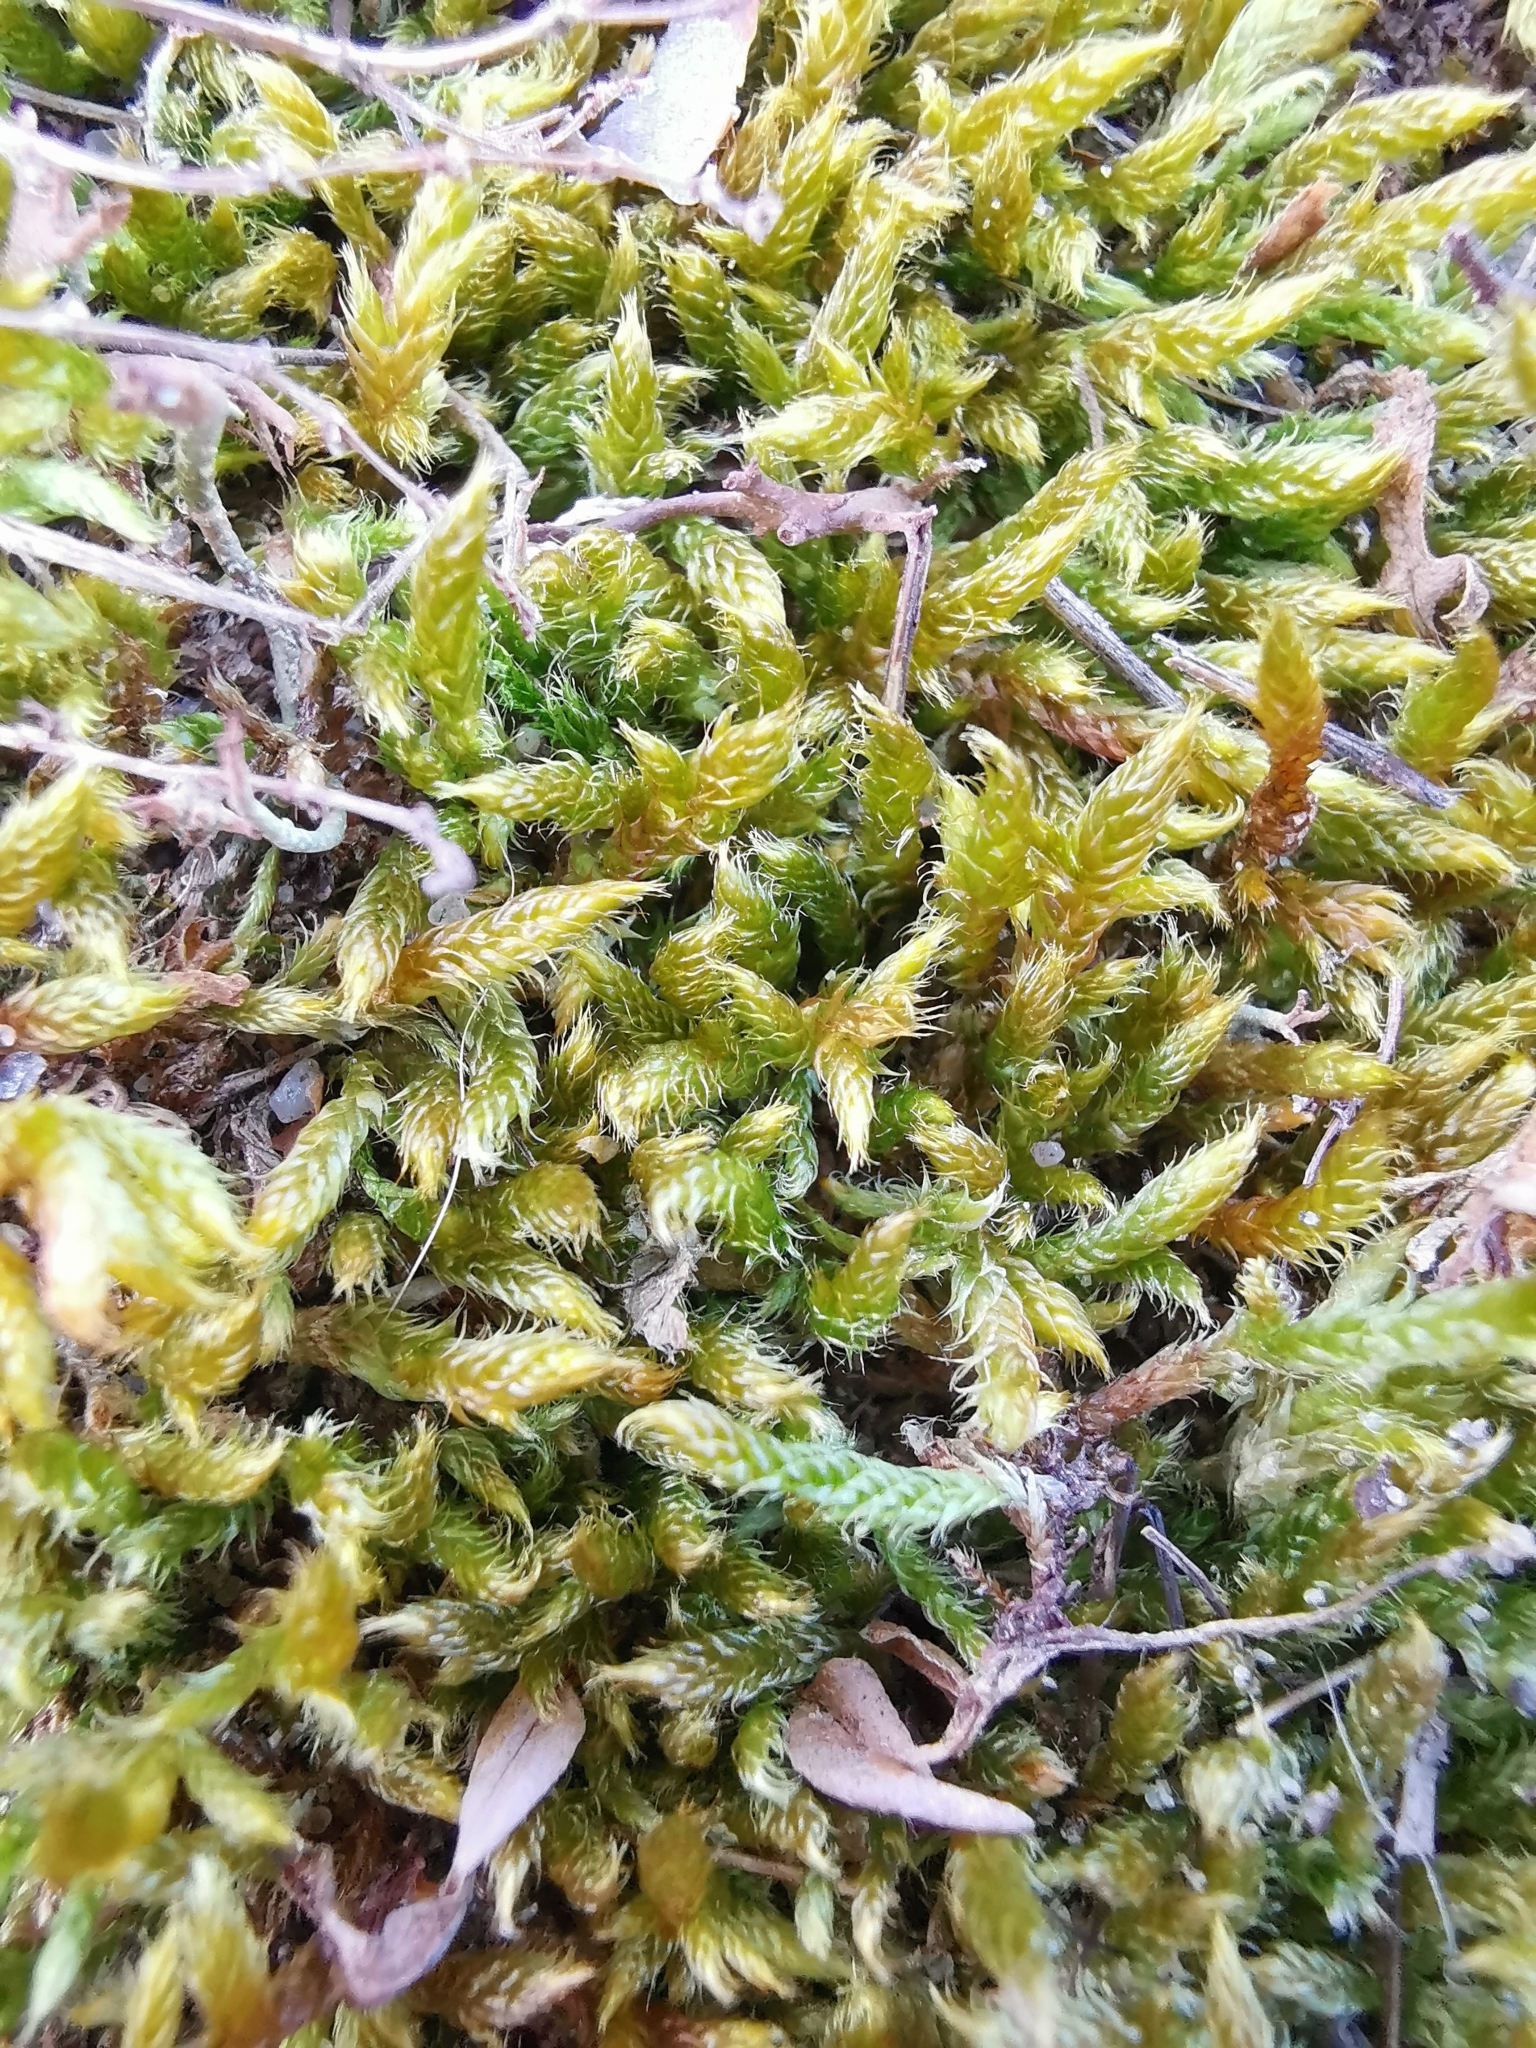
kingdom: Plantae
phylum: Bryophyta
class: Bryopsida
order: Hypnales
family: Hypnaceae
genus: Hypnum
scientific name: Hypnum cupressiforme
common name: Cypress-leaved plait-moss
